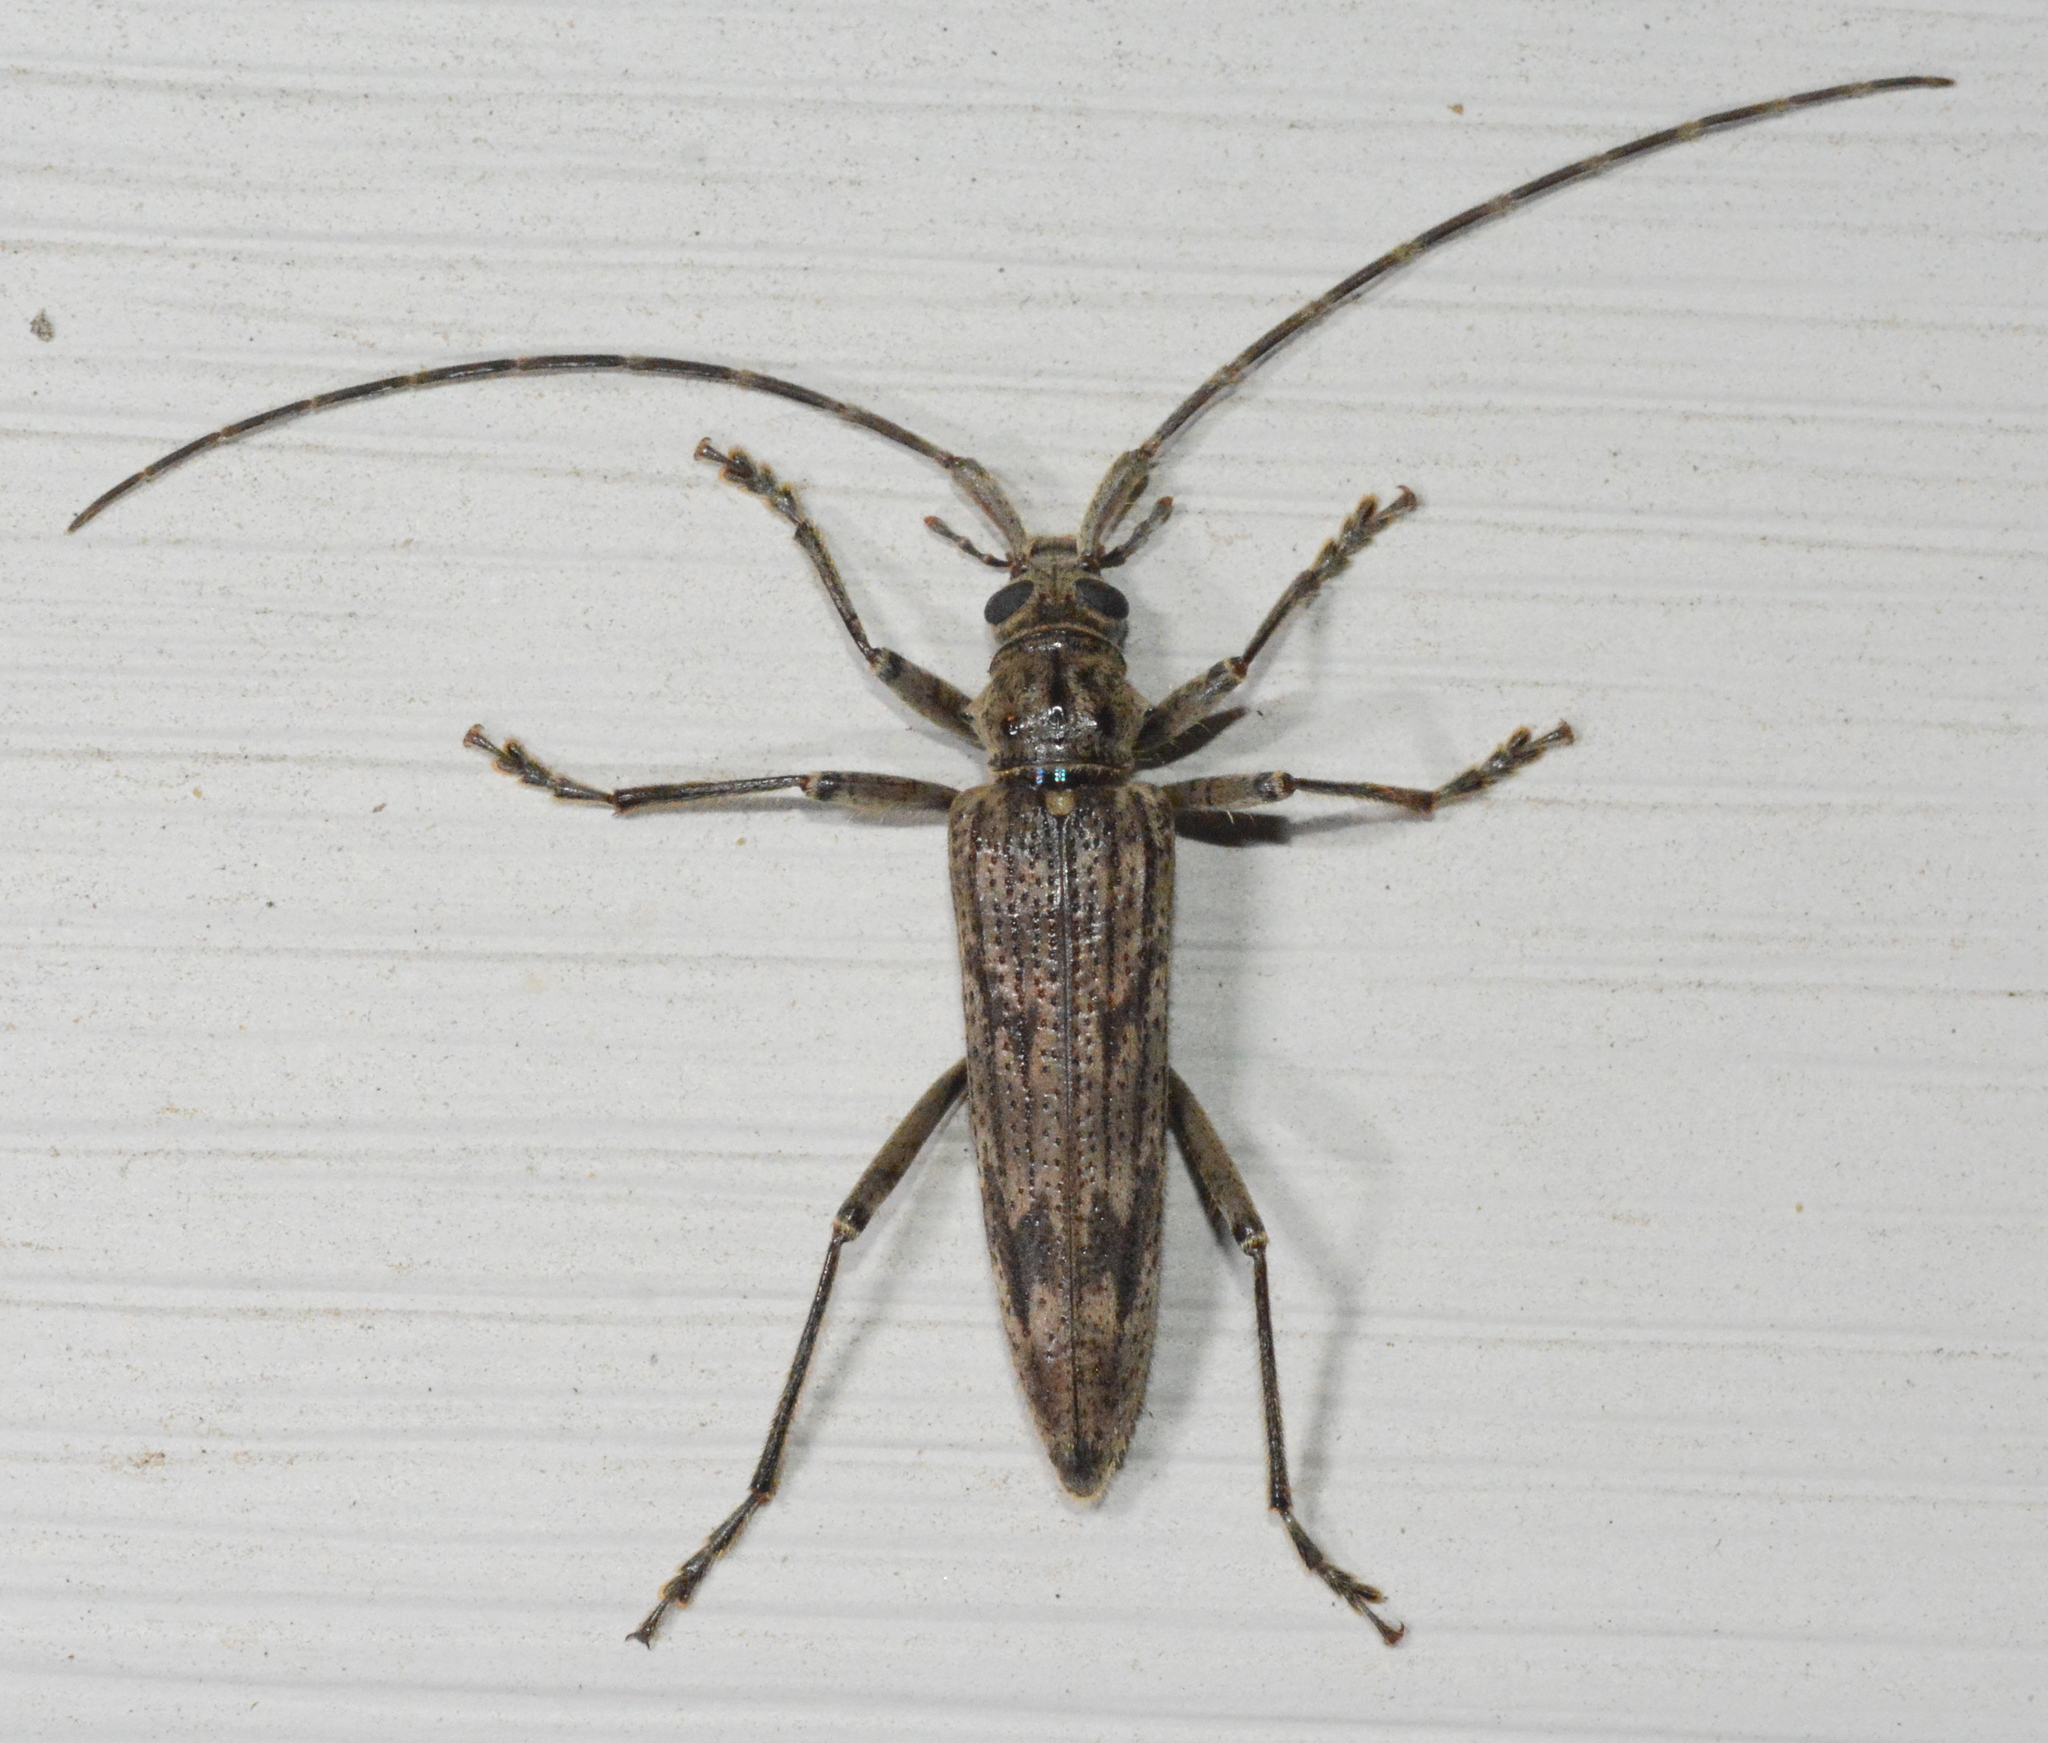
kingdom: Animalia
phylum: Arthropoda
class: Insecta
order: Coleoptera
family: Cerambycidae
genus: Elytrimitatrix
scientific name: Elytrimitatrix undata
